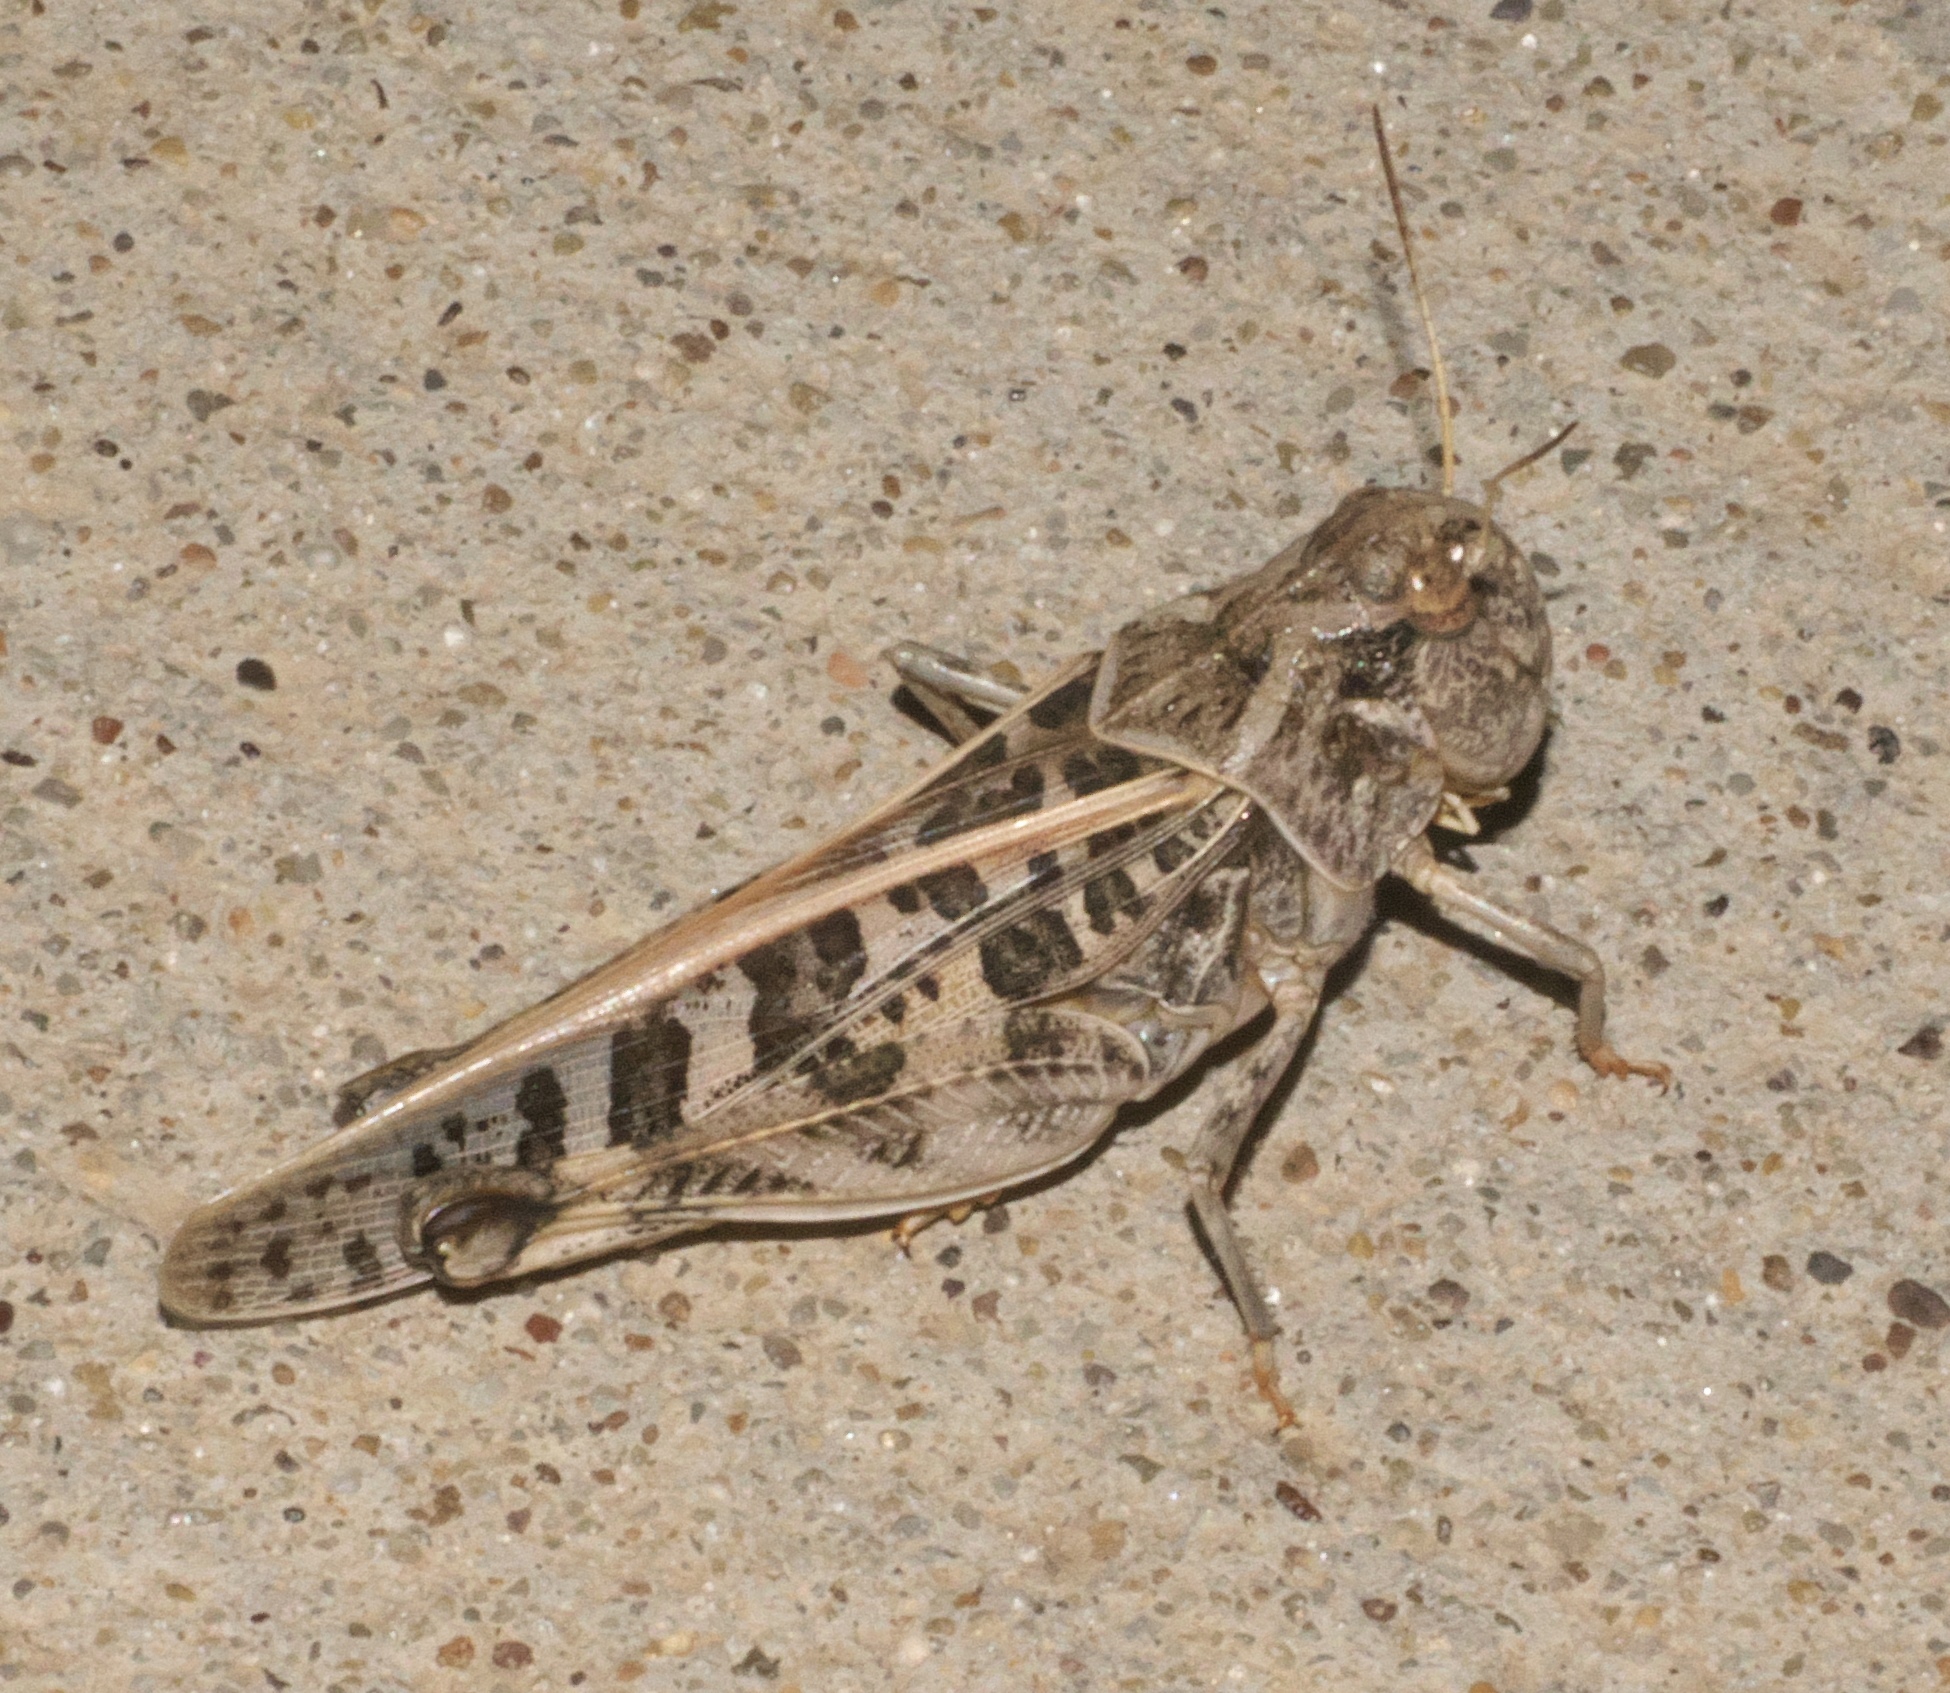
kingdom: Animalia
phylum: Arthropoda
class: Insecta
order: Orthoptera
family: Acrididae
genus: Hippiscus
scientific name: Hippiscus ocelote
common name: Wrinkled grasshopper
